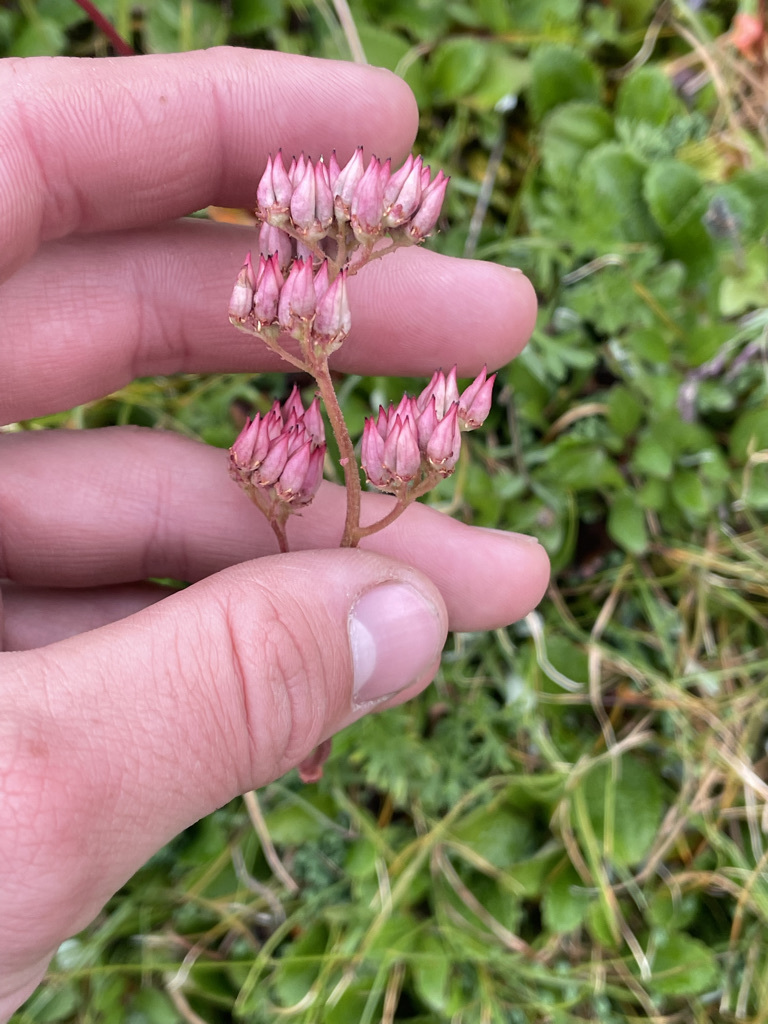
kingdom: Plantae
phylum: Tracheophyta
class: Magnoliopsida
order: Saxifragales
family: Saxifragaceae
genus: Leptarrhena
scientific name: Leptarrhena pyrolifolia
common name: Leatherleaf-saxifrage
